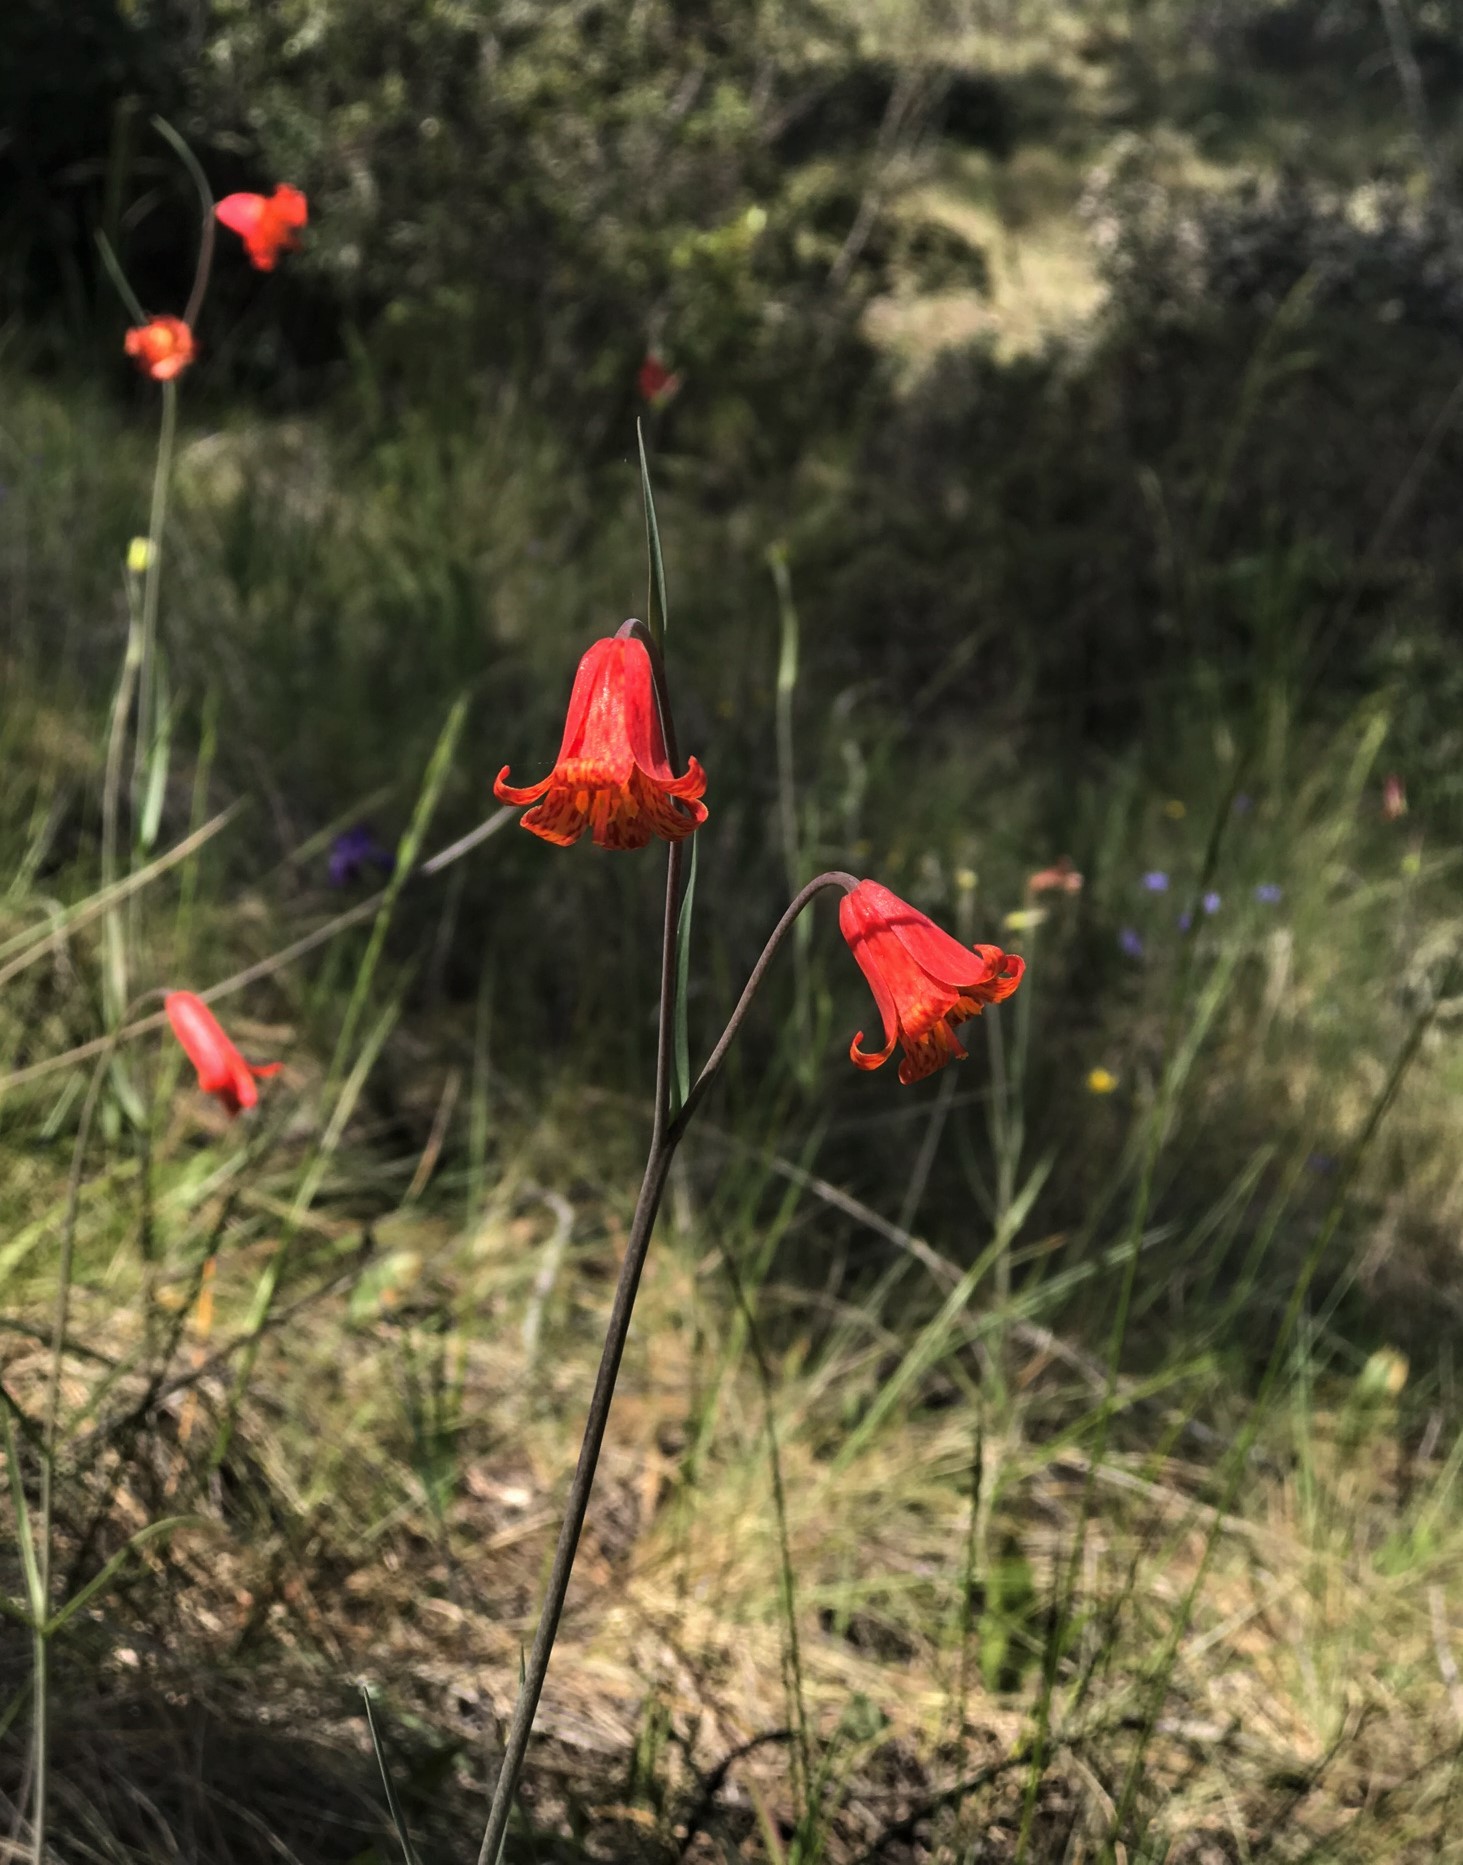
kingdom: Plantae
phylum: Tracheophyta
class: Liliopsida
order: Liliales
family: Liliaceae
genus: Fritillaria
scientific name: Fritillaria recurva
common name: Scarlet fritillary
